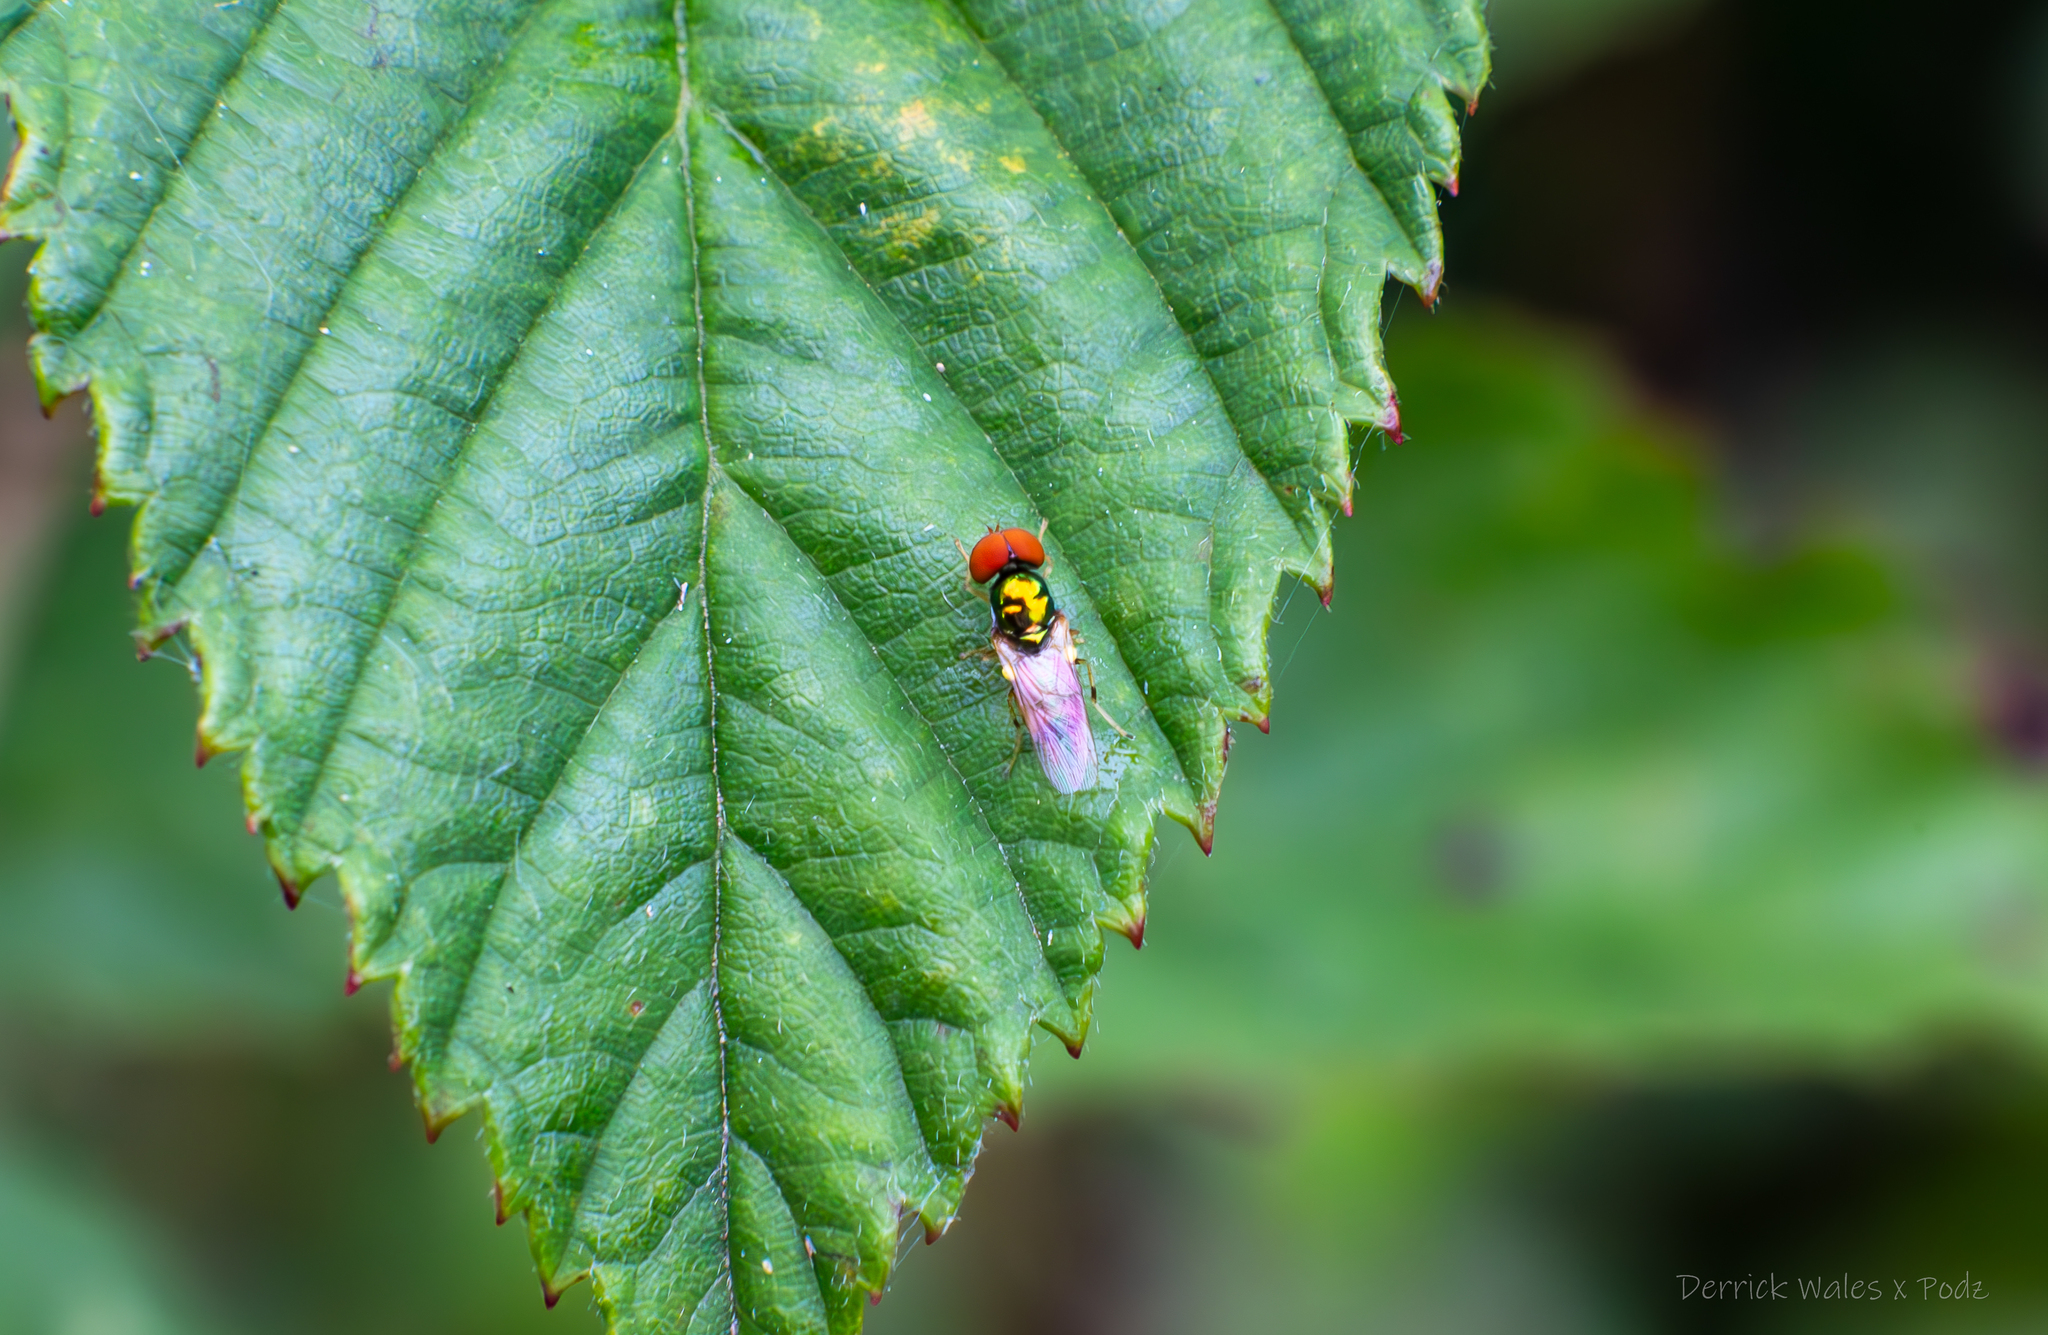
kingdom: Animalia
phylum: Arthropoda
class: Insecta
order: Diptera
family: Stratiomyidae
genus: Microchrysa
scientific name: Microchrysa flaviventris
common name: Soldier fly
